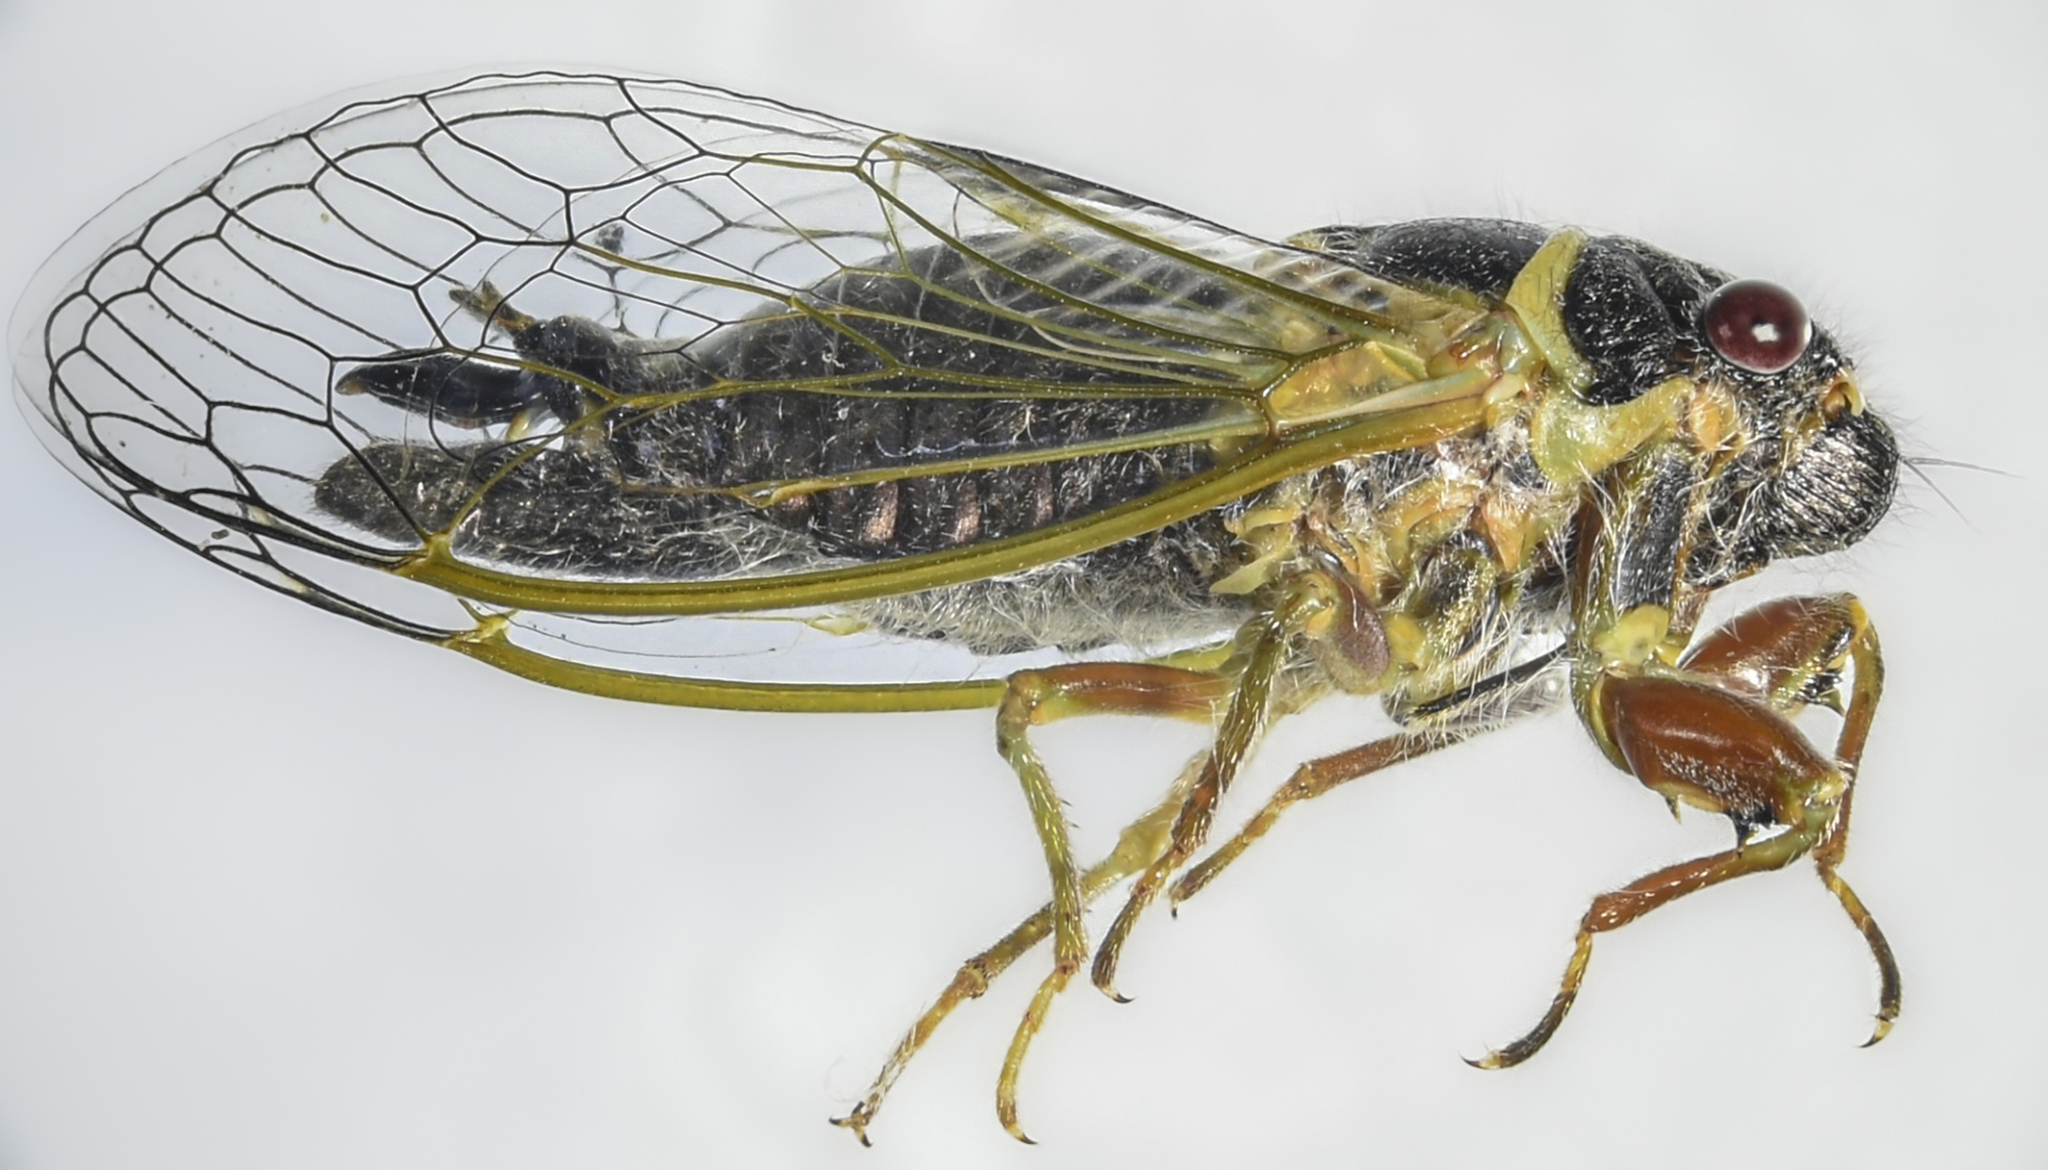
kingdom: Animalia
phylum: Arthropoda
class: Insecta
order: Hemiptera
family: Cicadidae
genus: Platypedia
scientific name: Platypedia similis
